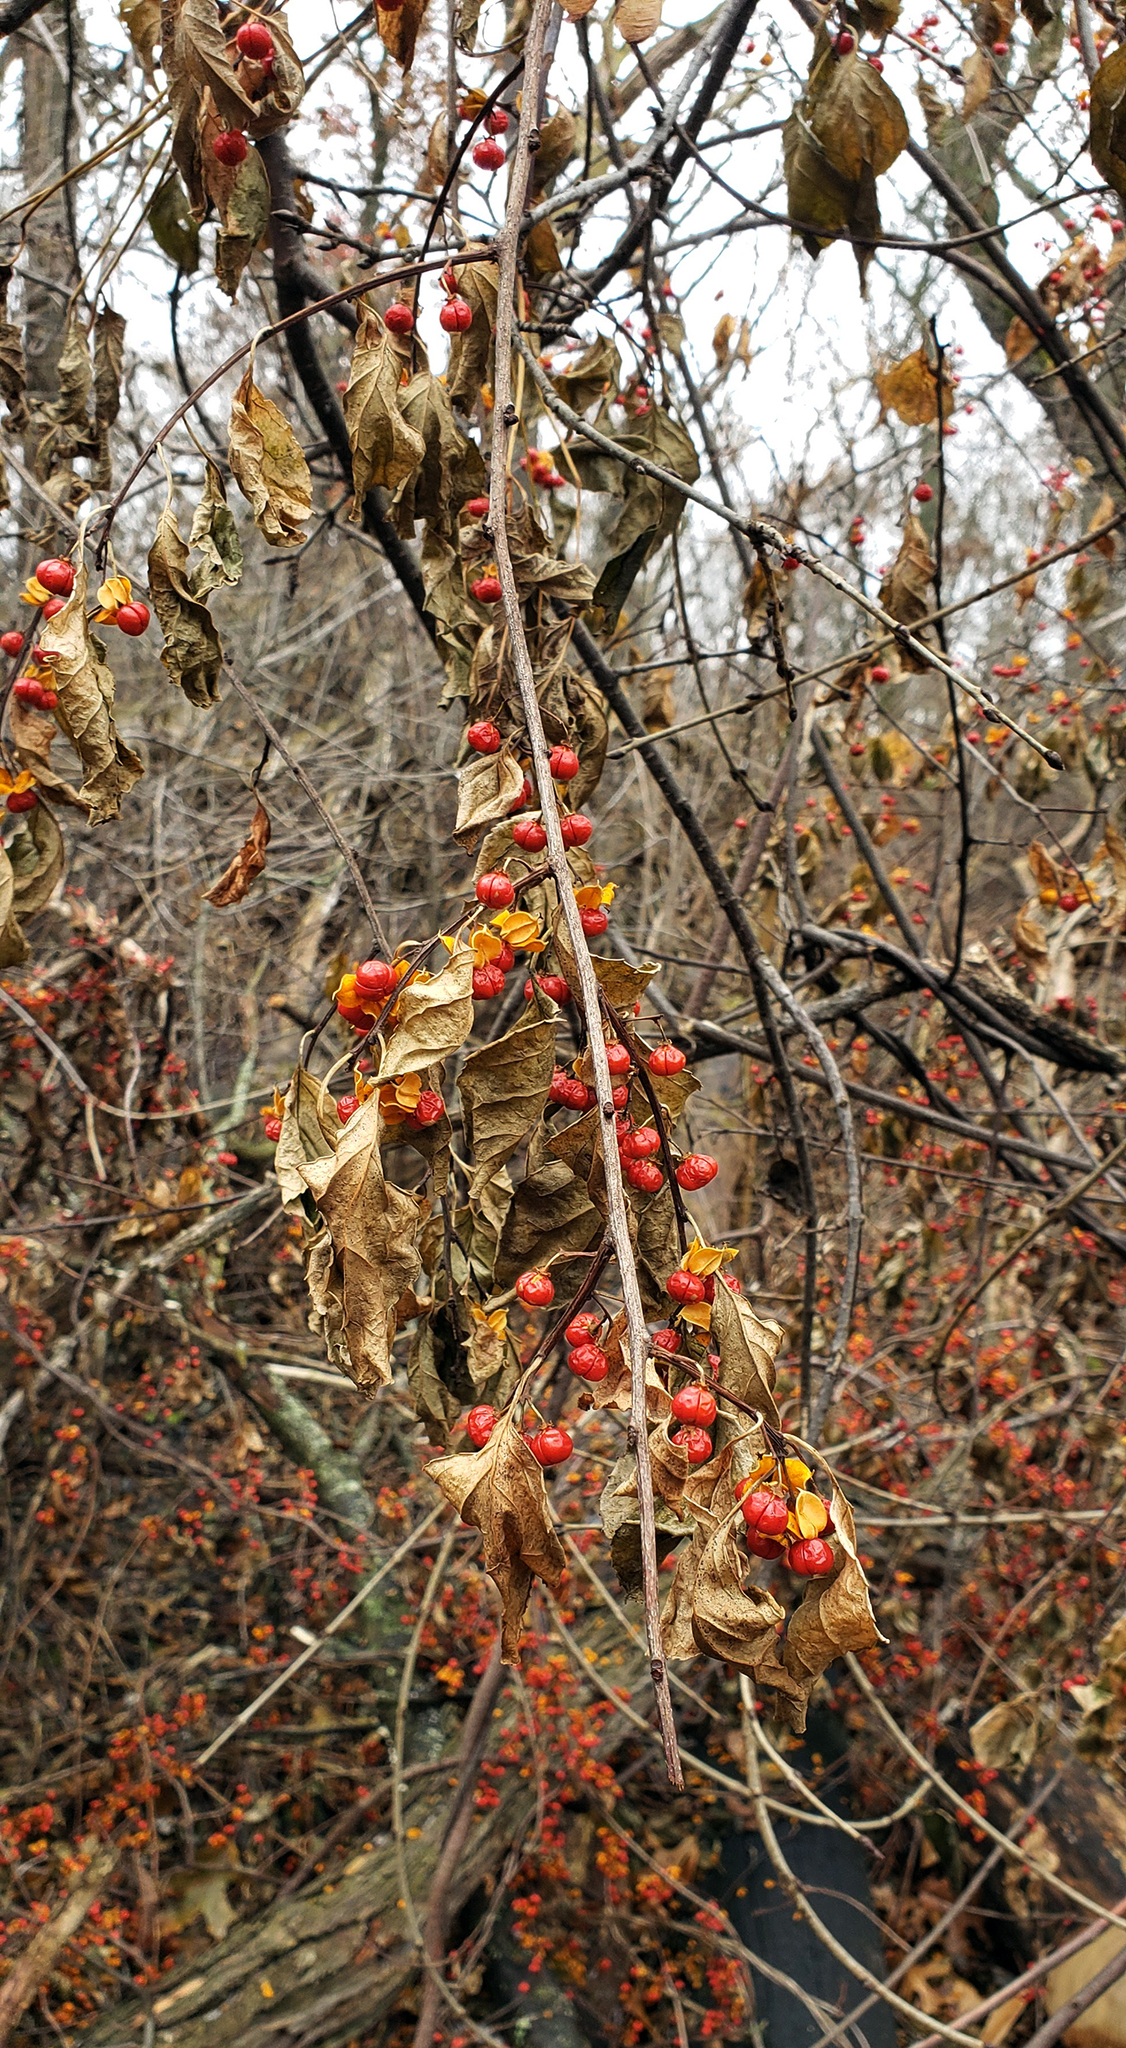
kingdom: Plantae
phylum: Tracheophyta
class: Magnoliopsida
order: Celastrales
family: Celastraceae
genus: Celastrus
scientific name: Celastrus orbiculatus
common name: Oriental bittersweet
